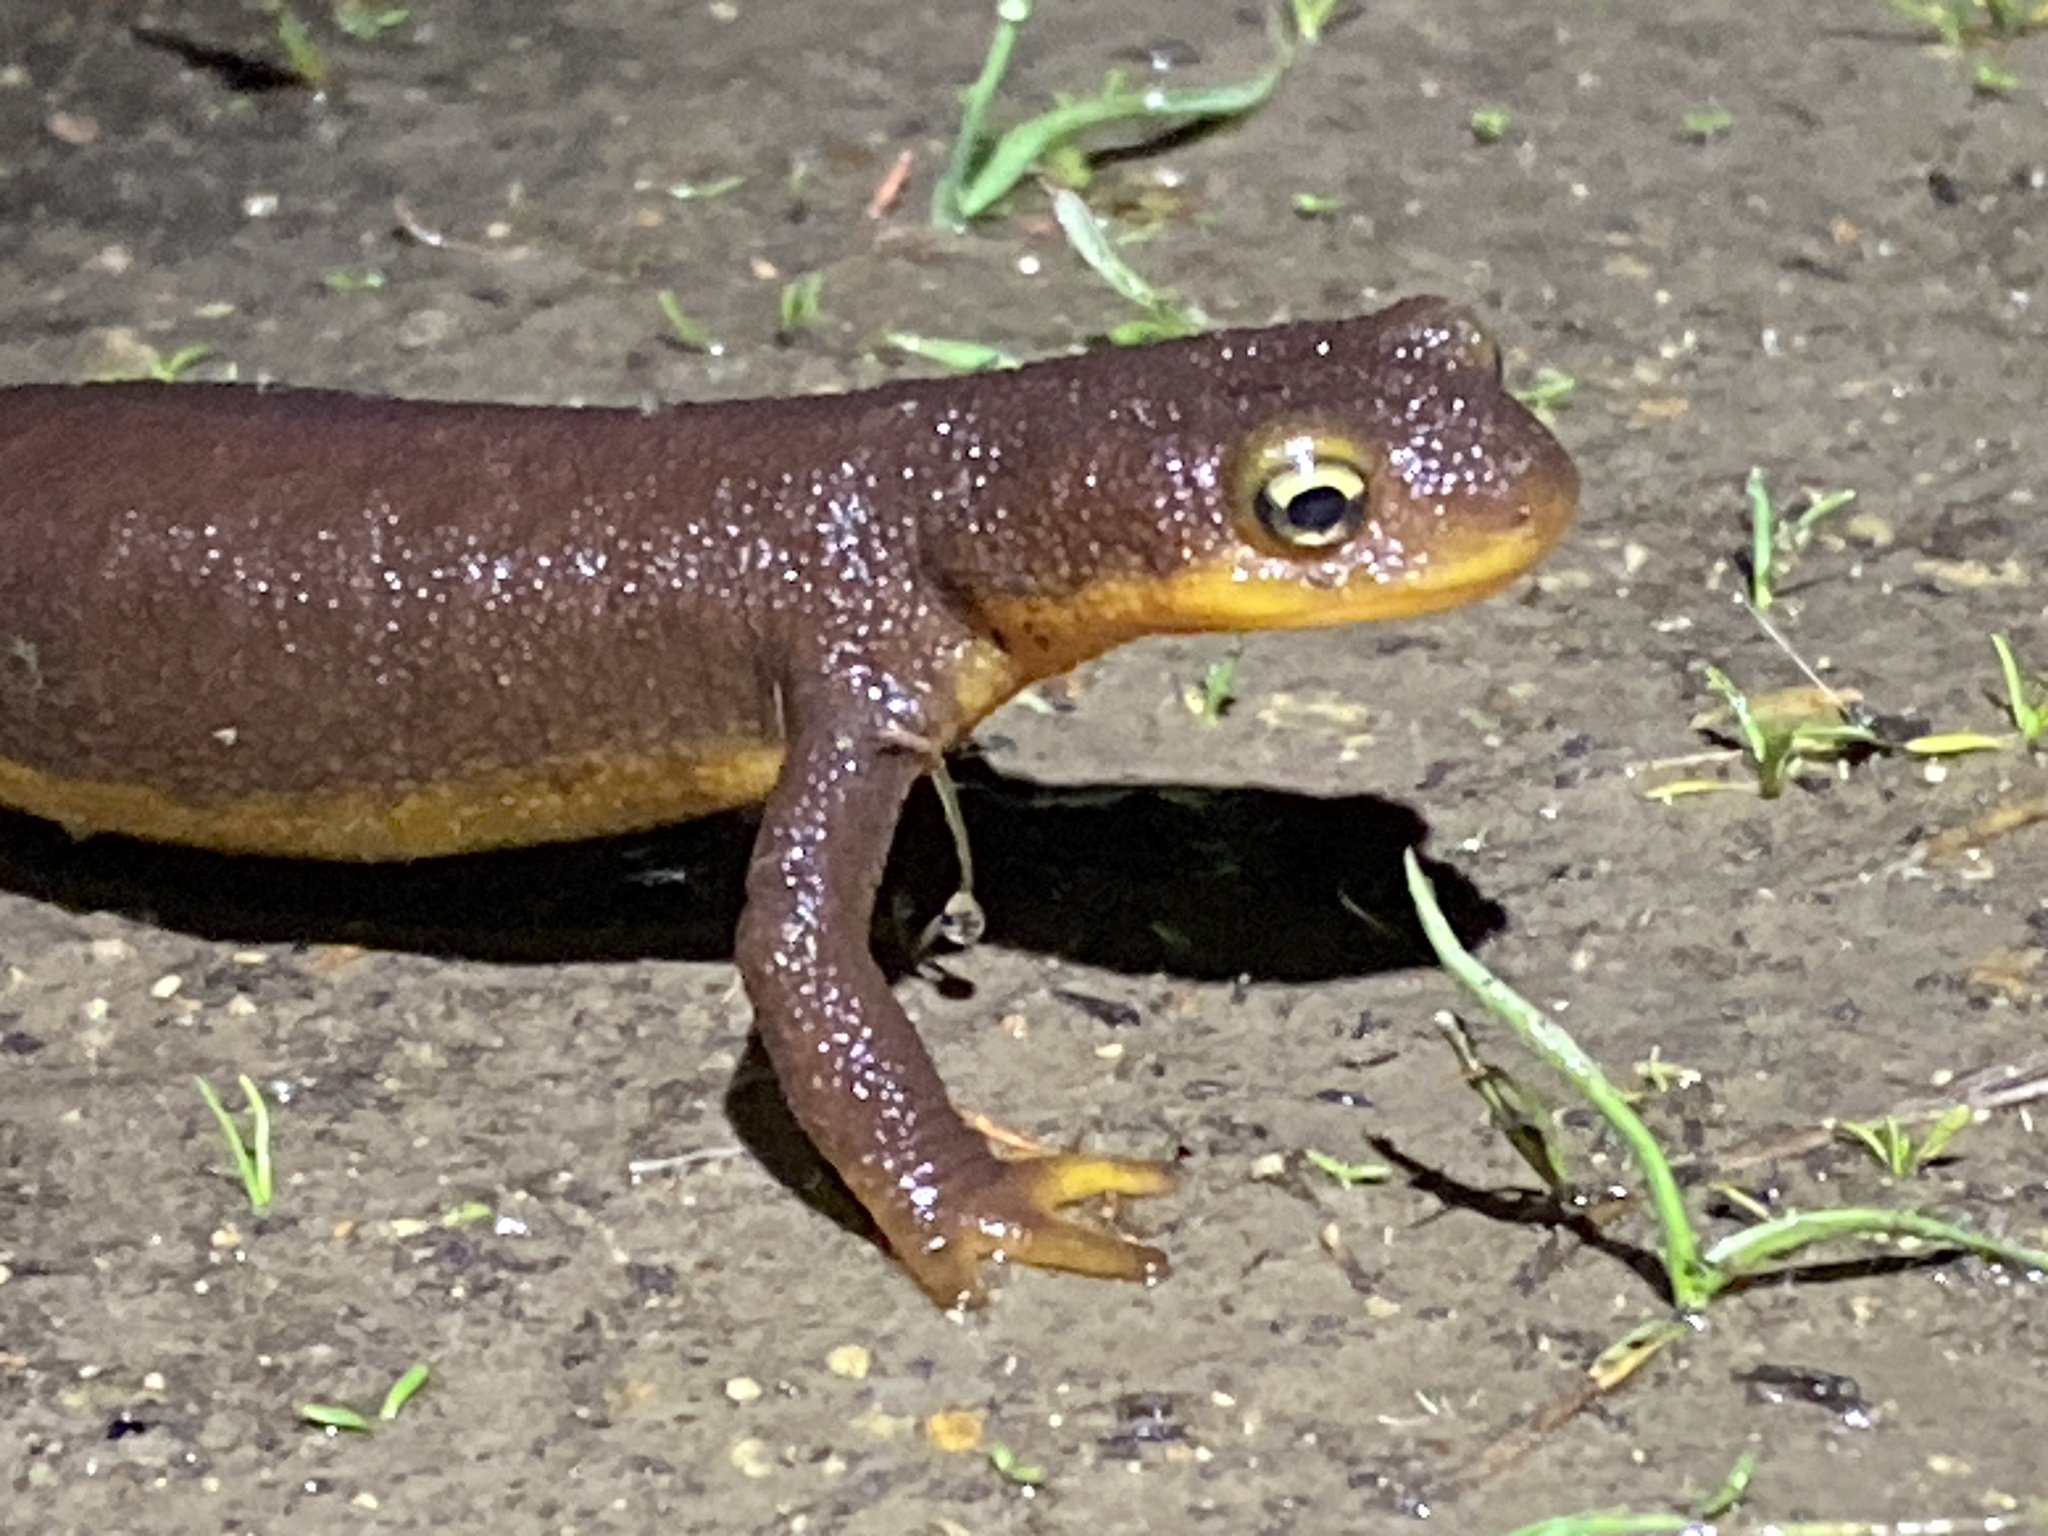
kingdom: Animalia
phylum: Chordata
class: Amphibia
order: Caudata
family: Salamandridae
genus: Taricha
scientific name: Taricha torosa
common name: California newt
